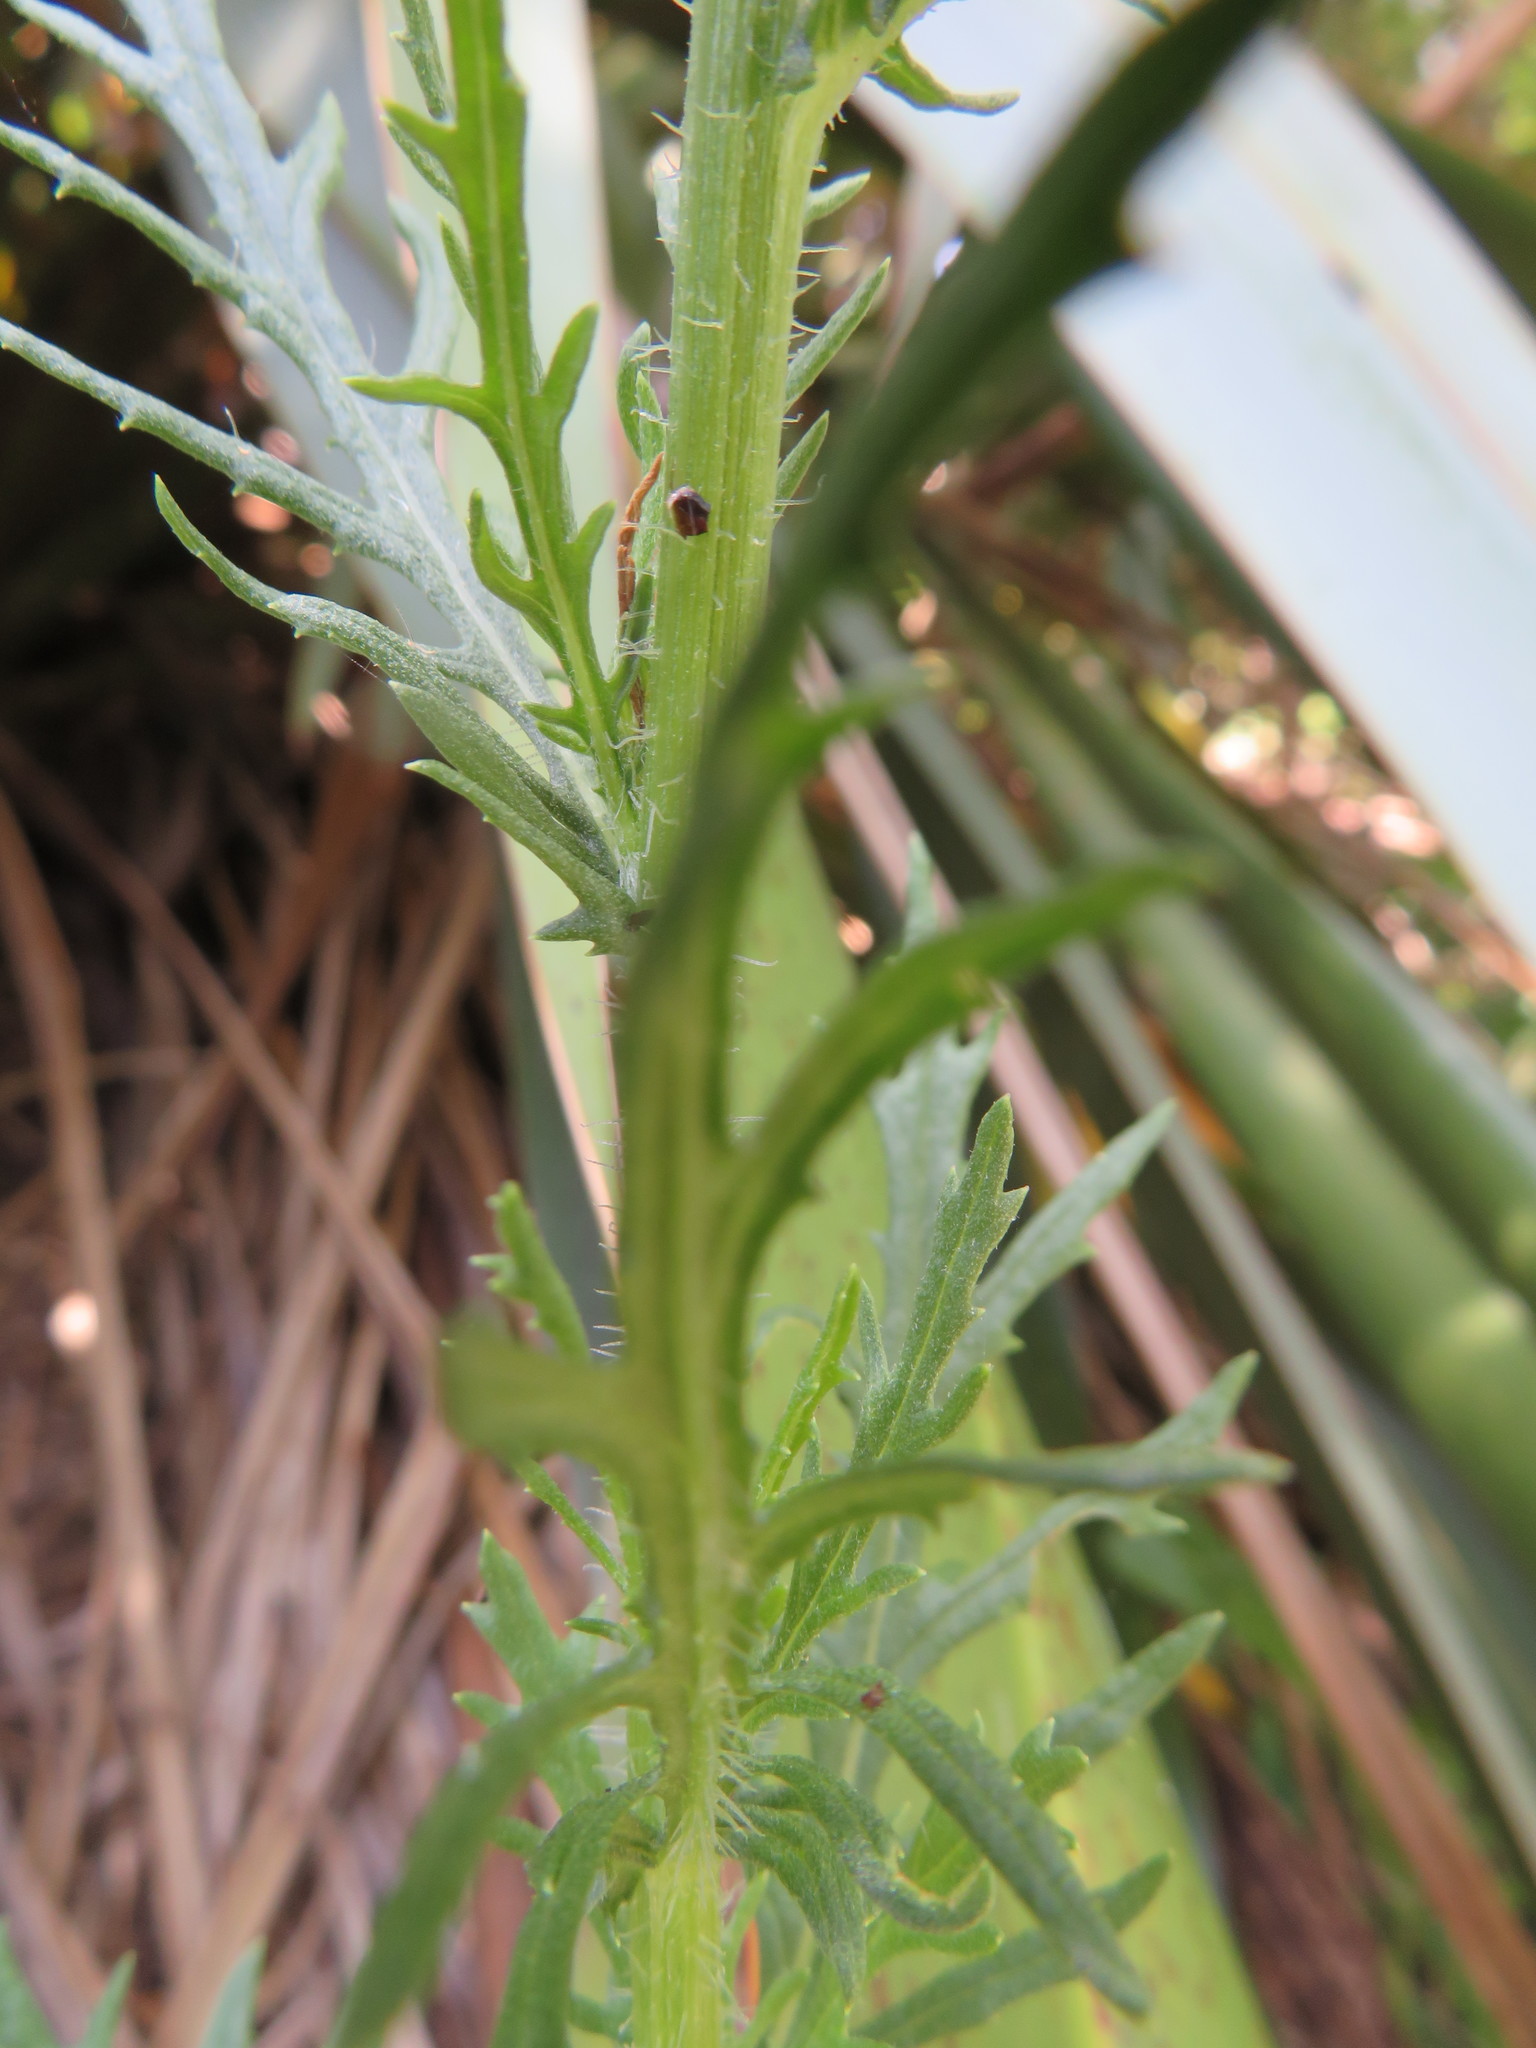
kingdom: Plantae
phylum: Tracheophyta
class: Magnoliopsida
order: Asterales
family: Asteraceae
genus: Senecio
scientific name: Senecio esleri
